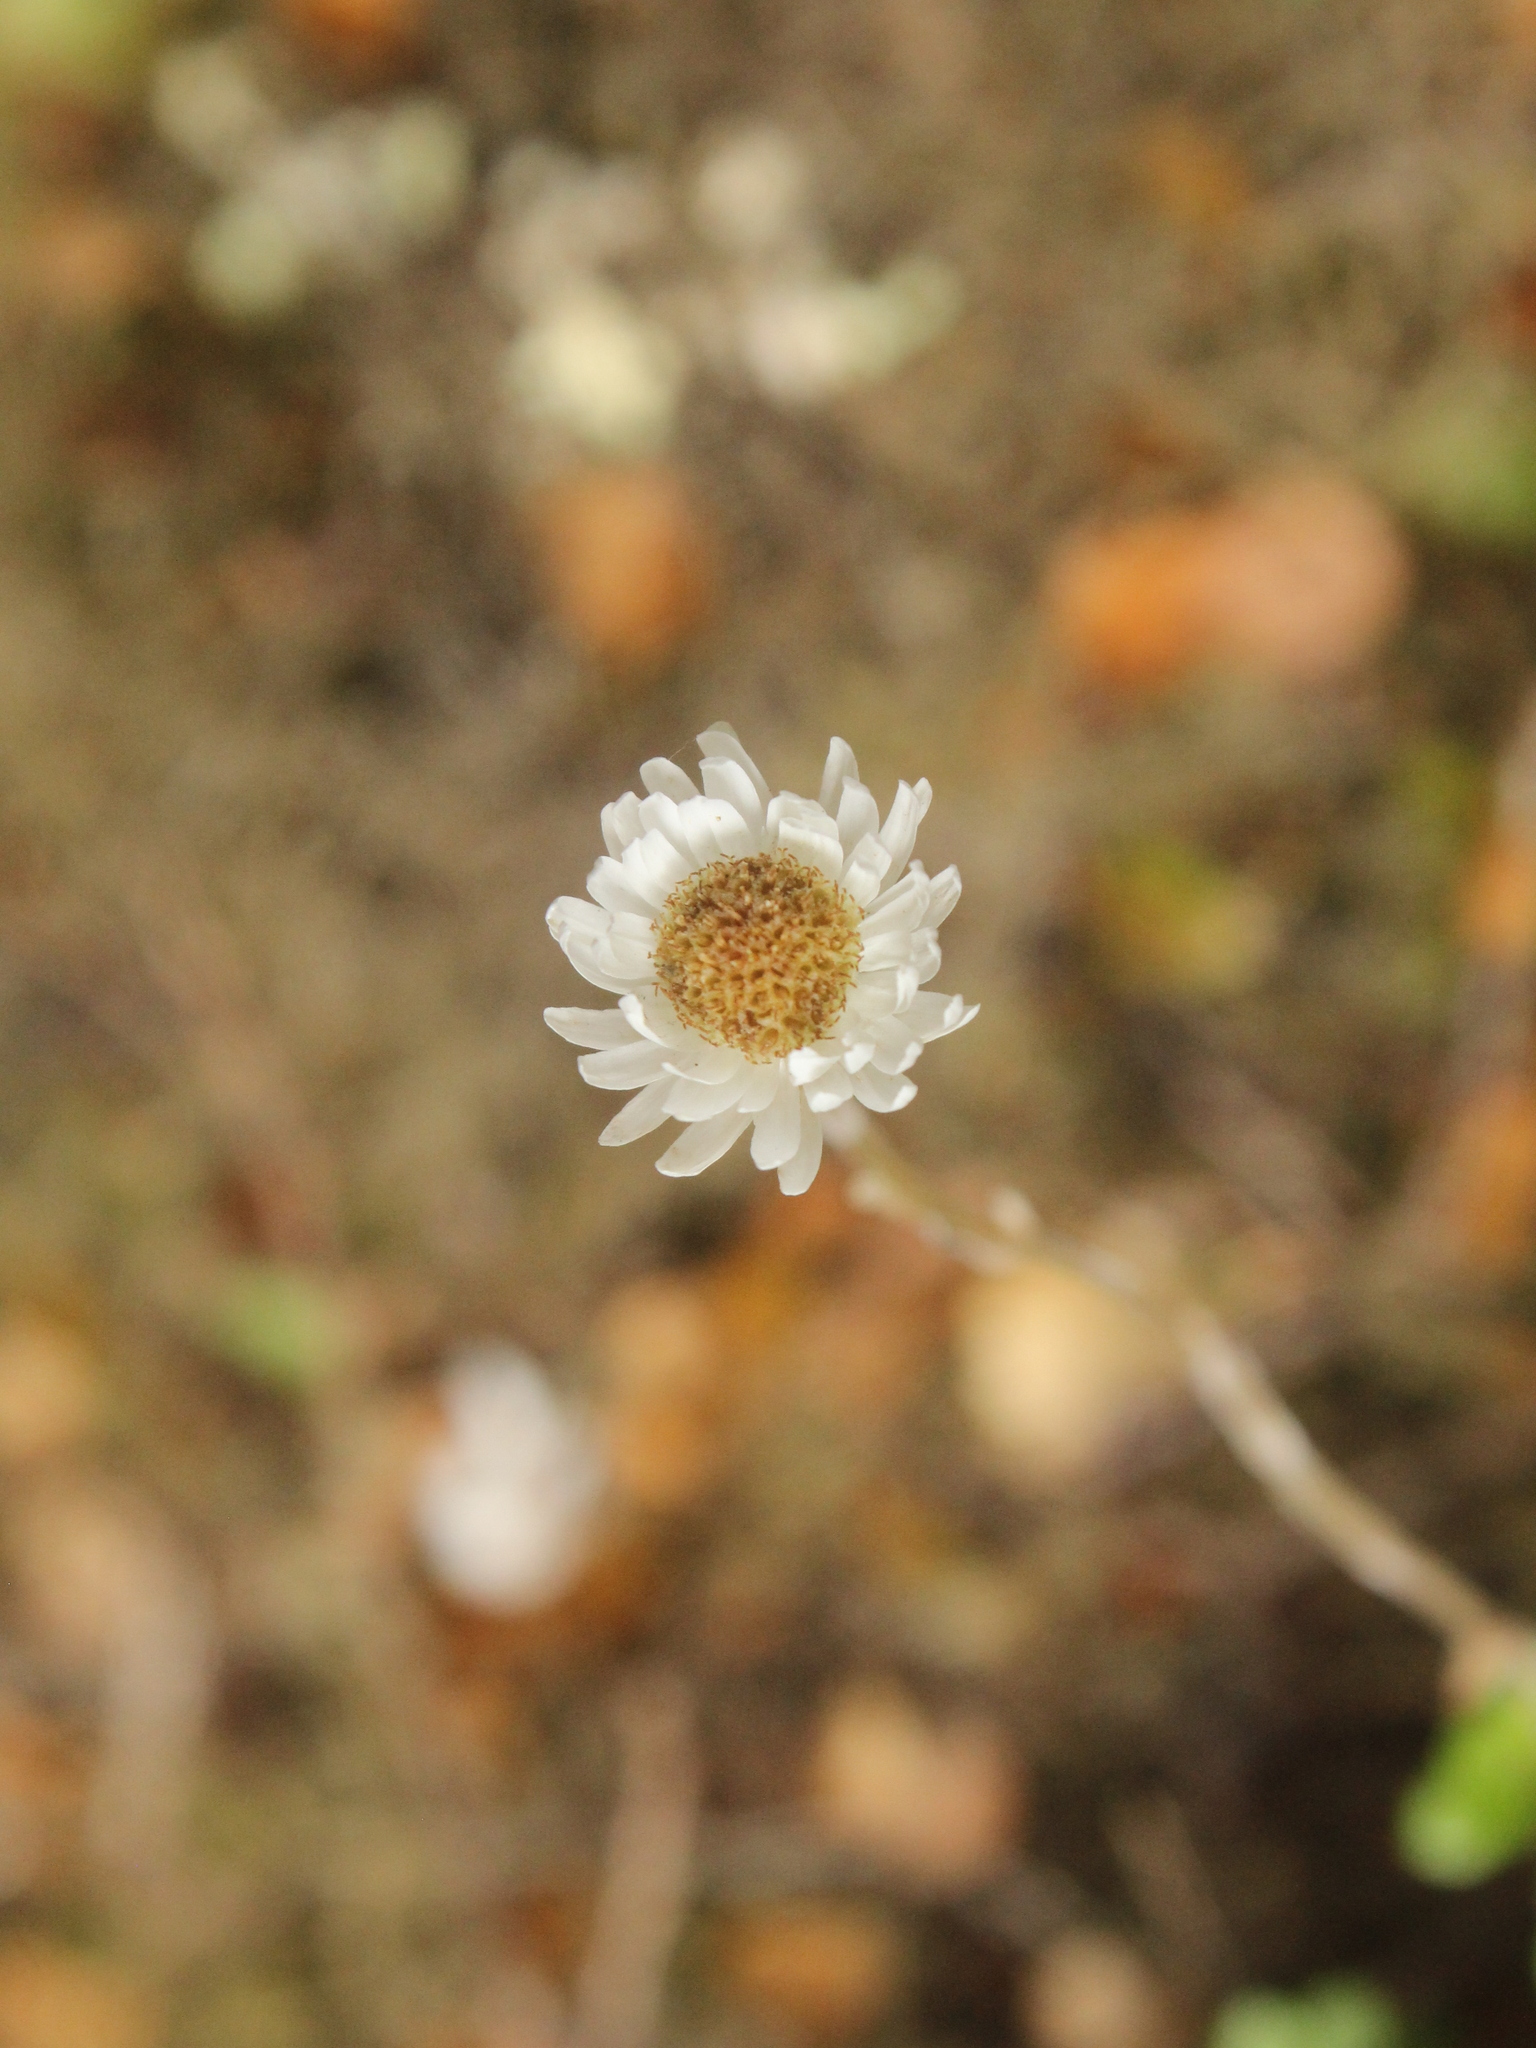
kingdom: Plantae
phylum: Tracheophyta
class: Magnoliopsida
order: Asterales
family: Asteraceae
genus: Anaphalioides
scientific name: Anaphalioides bellidioides
